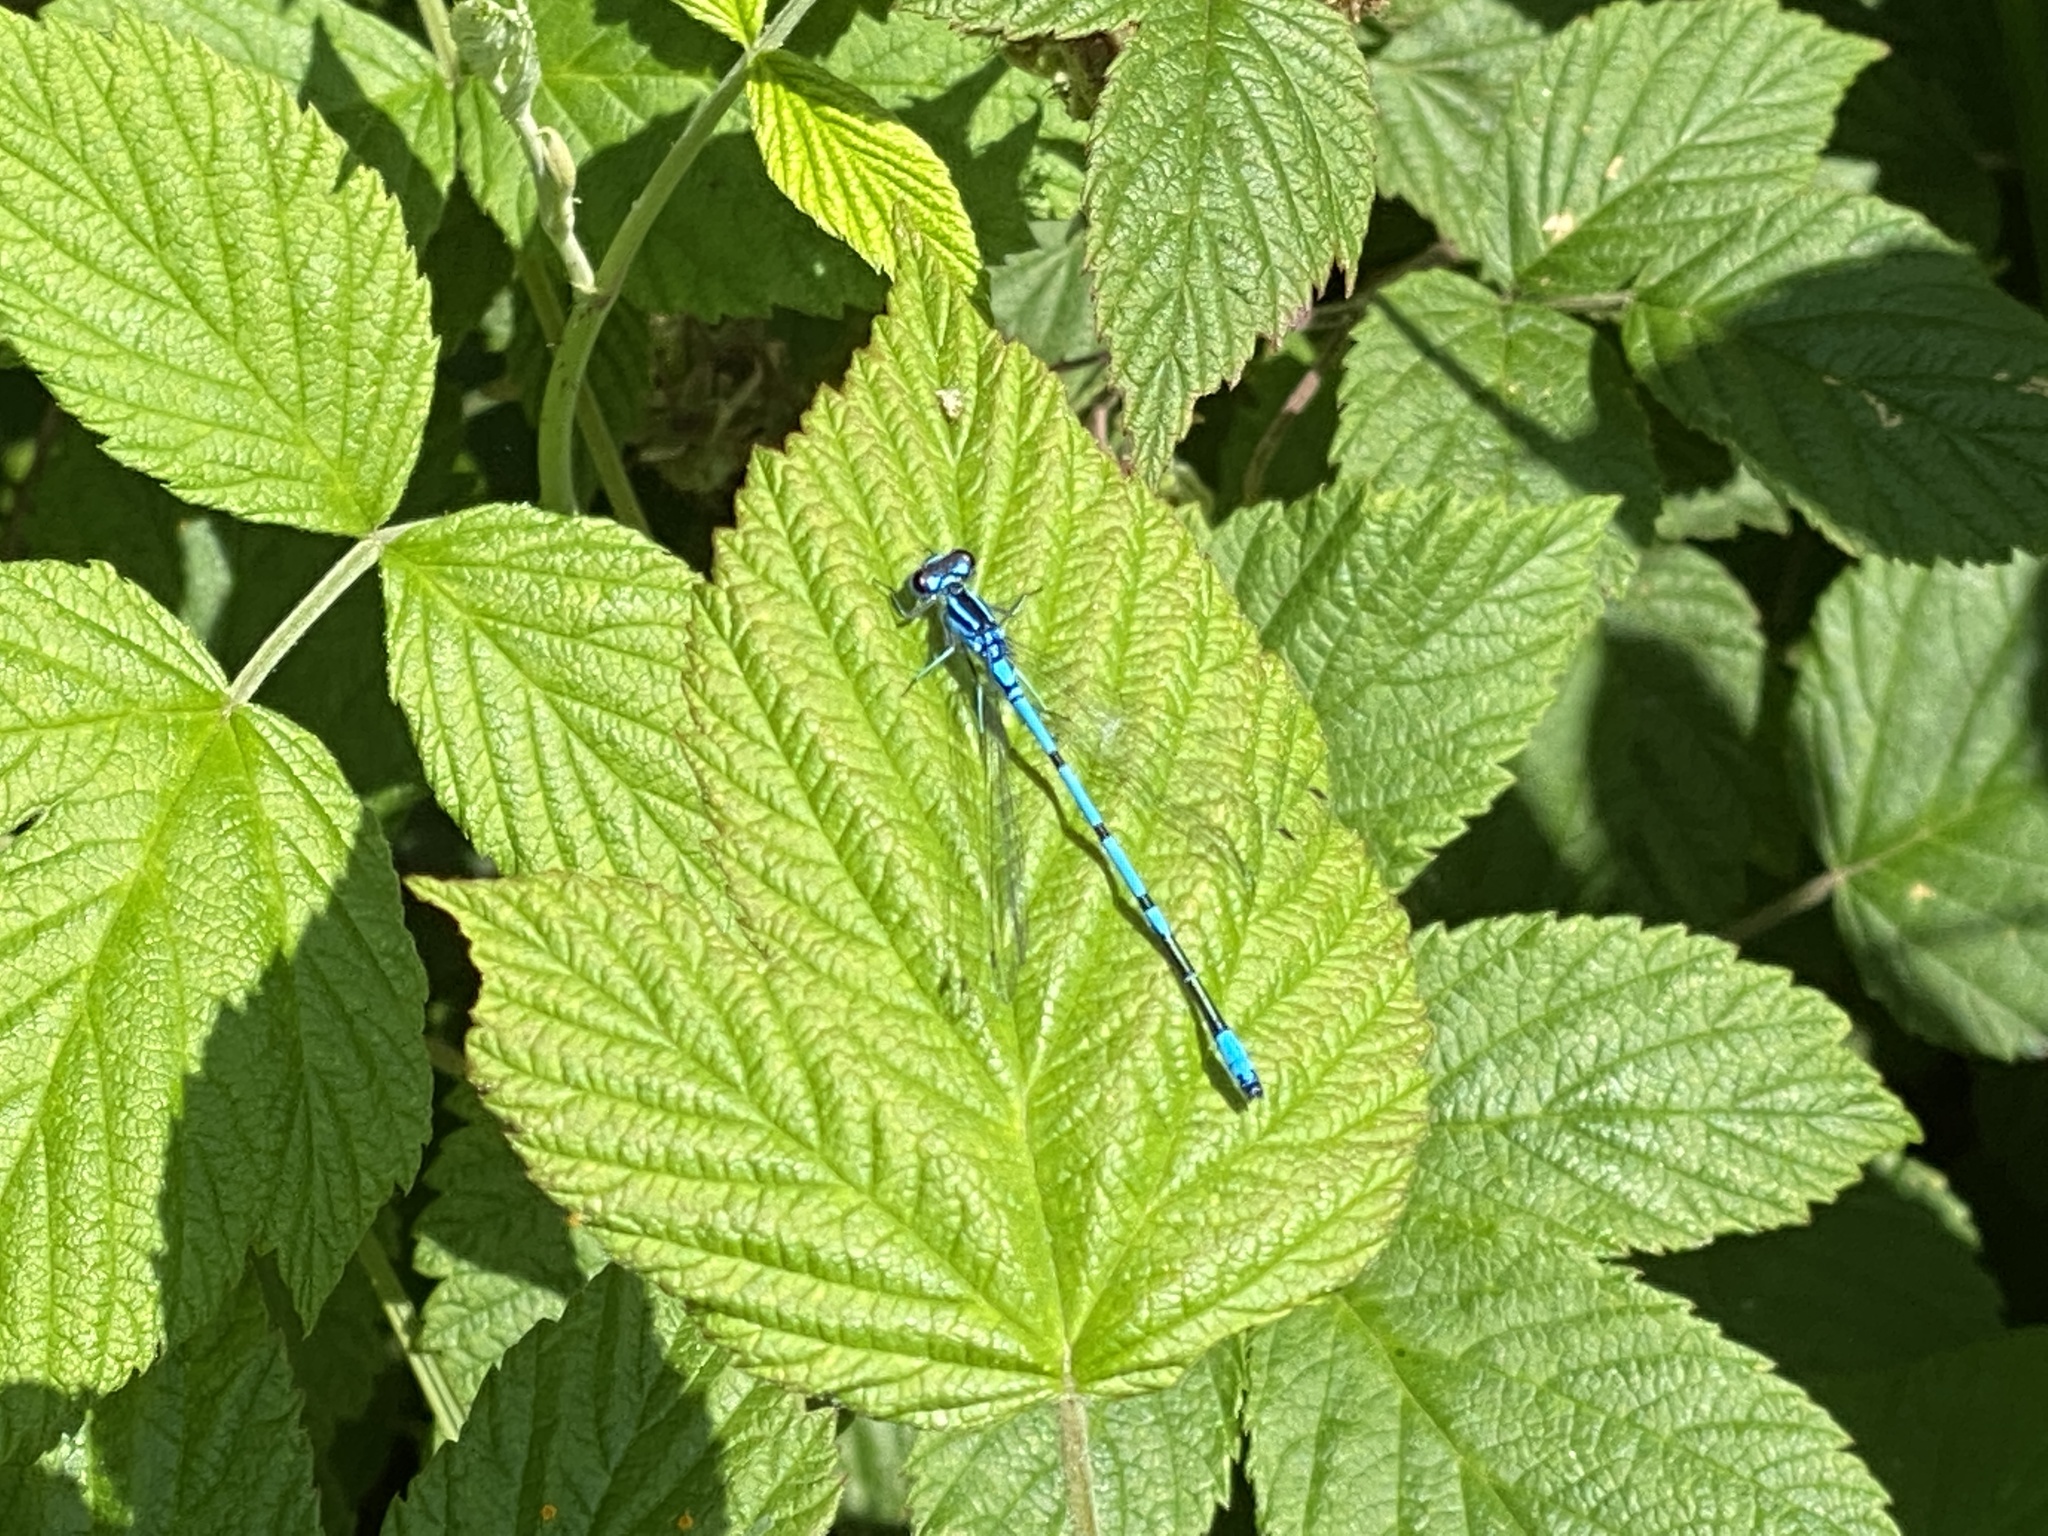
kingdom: Animalia
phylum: Arthropoda
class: Insecta
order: Odonata
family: Coenagrionidae
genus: Coenagrion
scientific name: Coenagrion puella
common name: Azure damselfly
